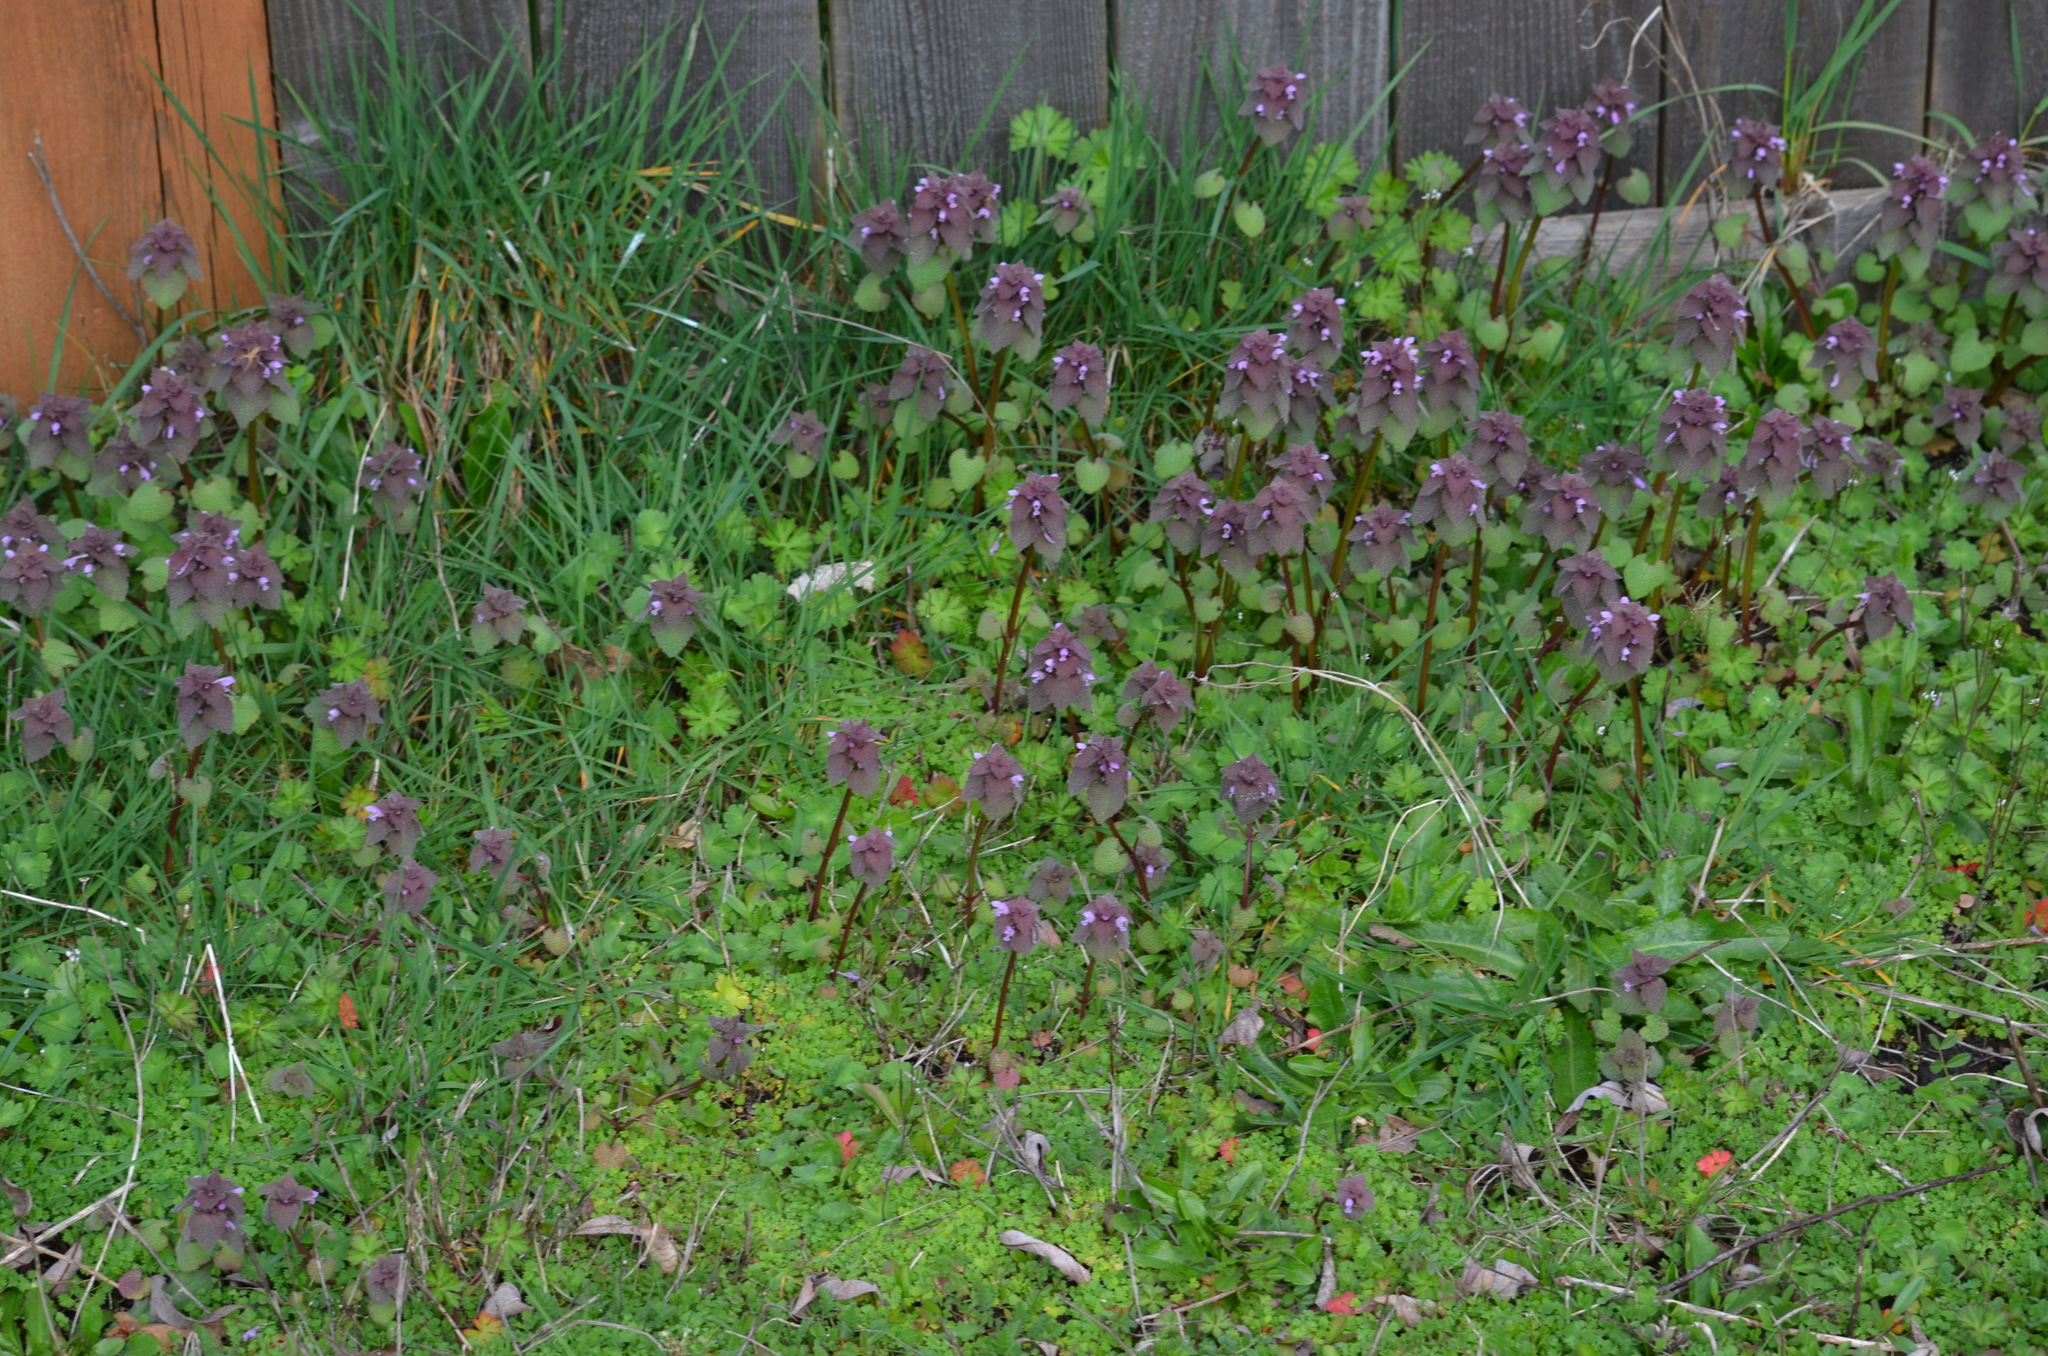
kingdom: Plantae
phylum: Tracheophyta
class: Magnoliopsida
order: Lamiales
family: Lamiaceae
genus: Lamium
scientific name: Lamium purpureum
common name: Red dead-nettle
